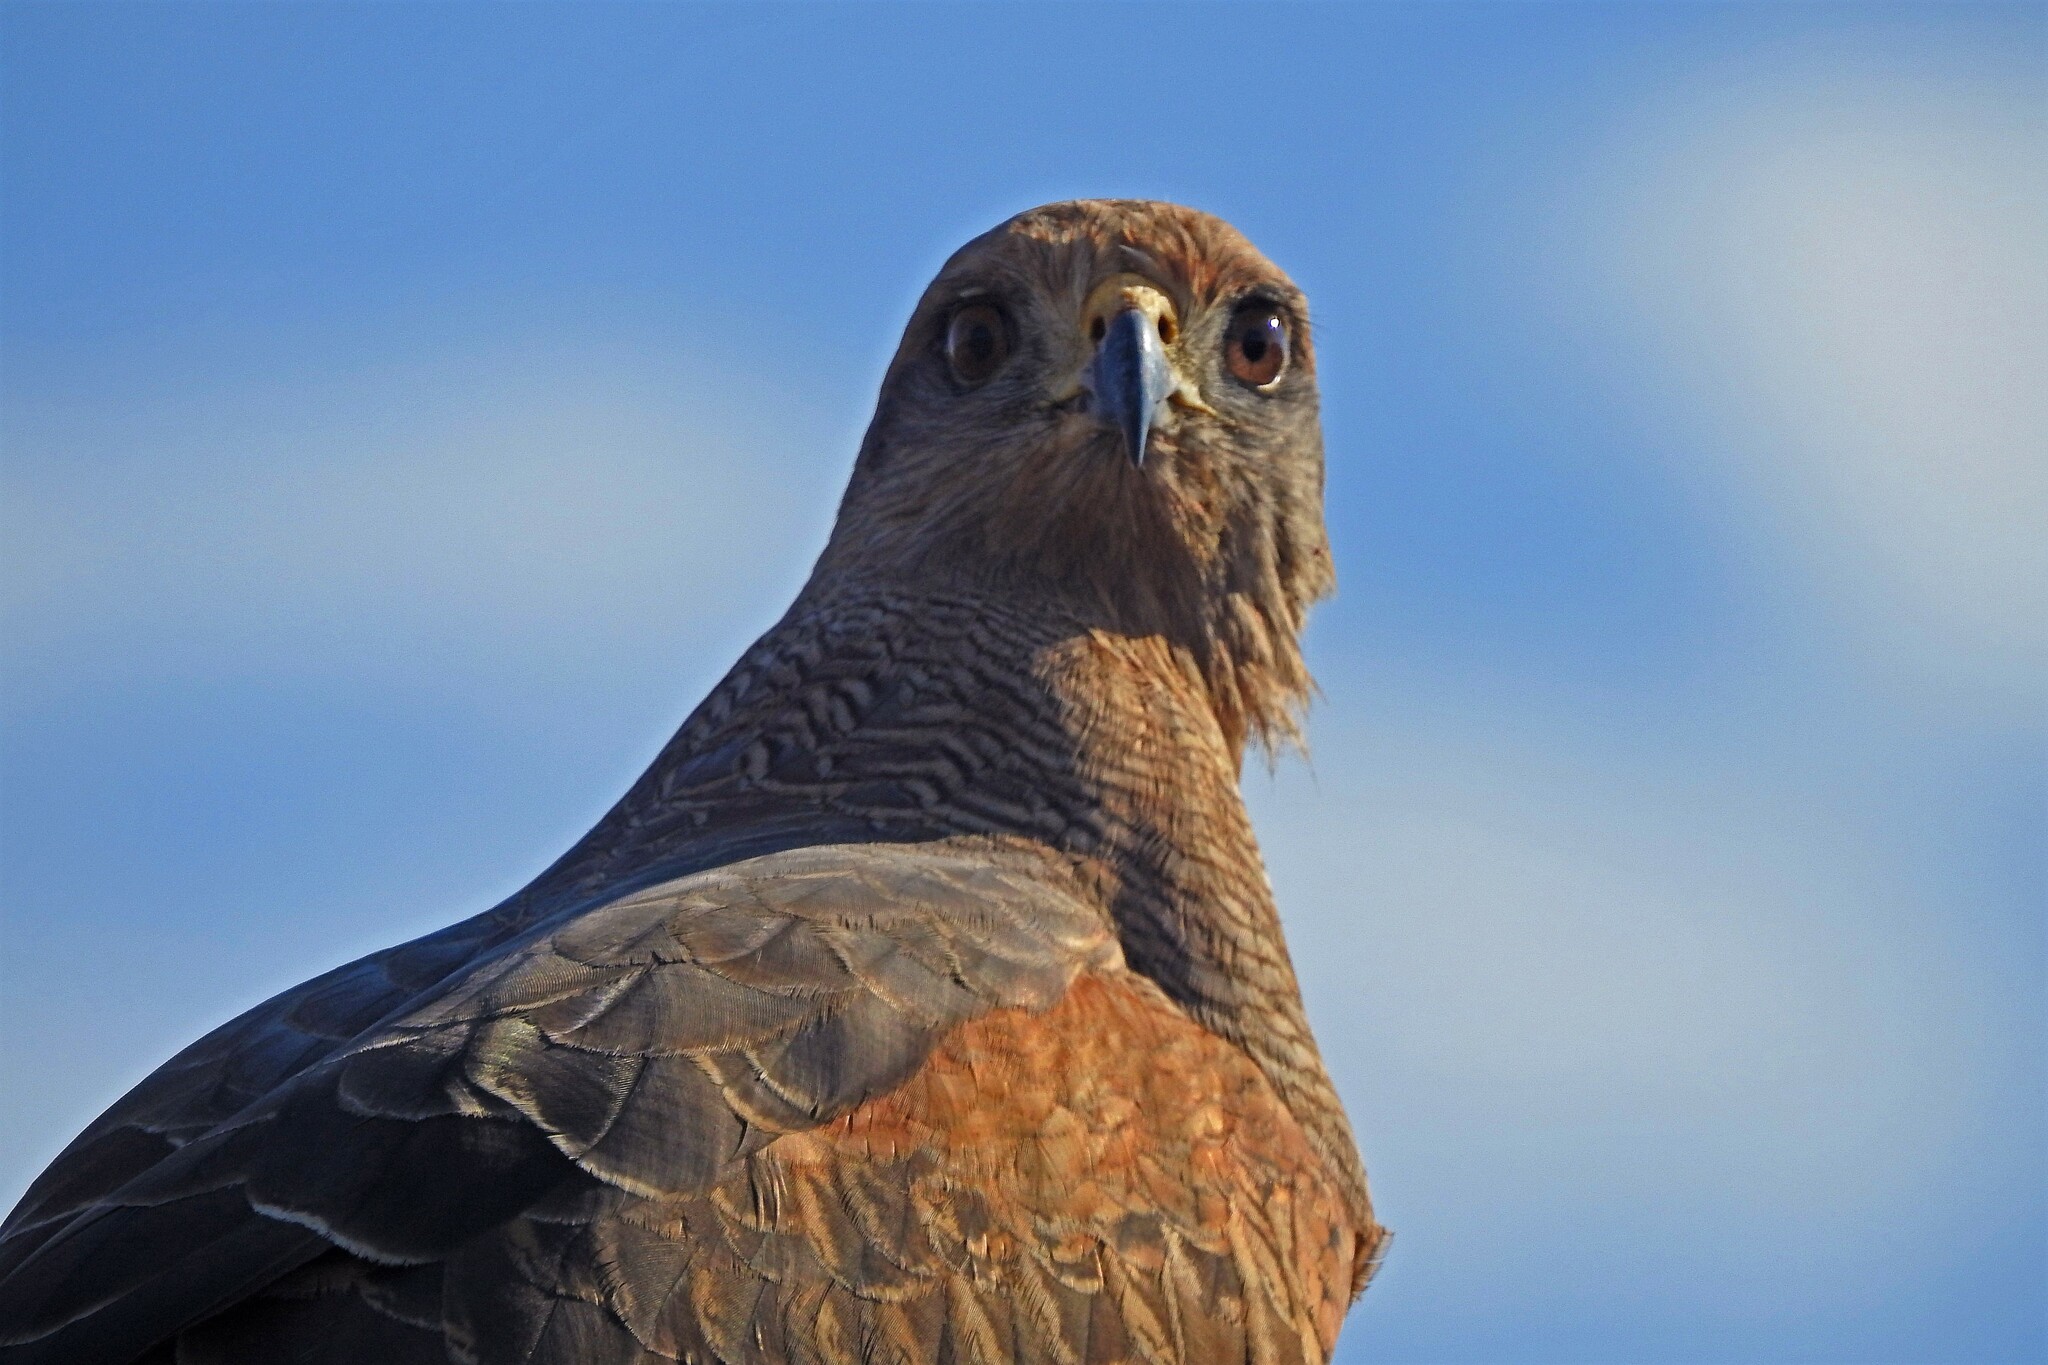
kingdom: Animalia
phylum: Chordata
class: Aves
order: Accipitriformes
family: Accipitridae
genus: Buteogallus
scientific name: Buteogallus meridionalis
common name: Savanna hawk
